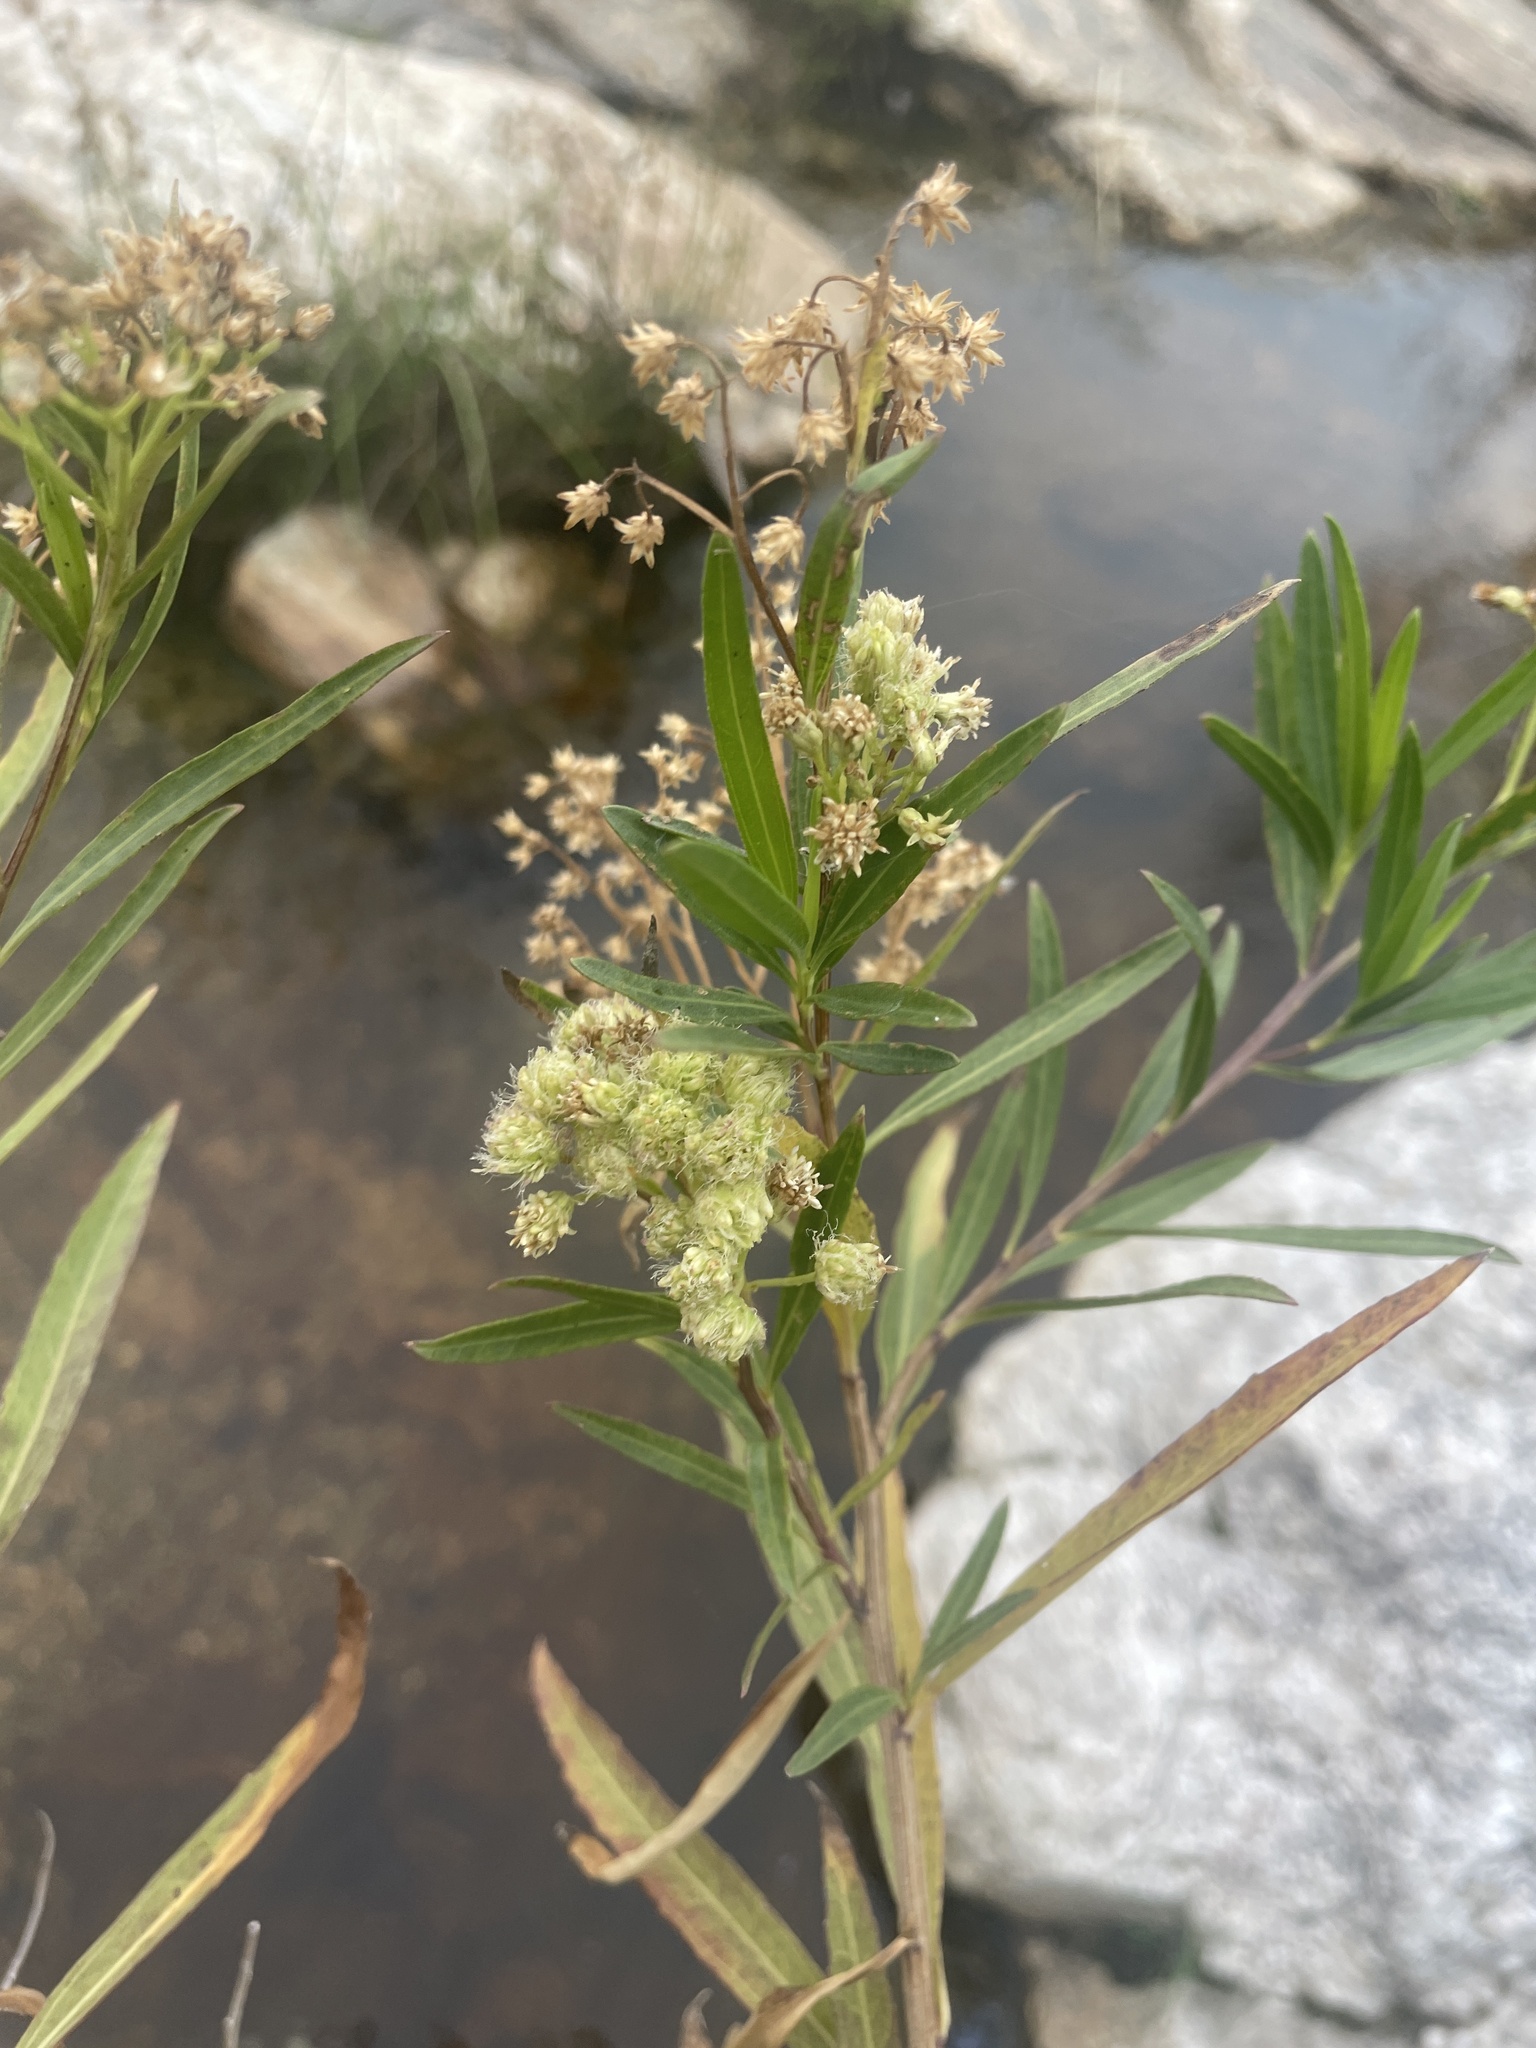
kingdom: Plantae
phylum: Tracheophyta
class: Magnoliopsida
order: Asterales
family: Asteraceae
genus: Baccharis
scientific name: Baccharis salicifolia
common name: Sticky baccharis
